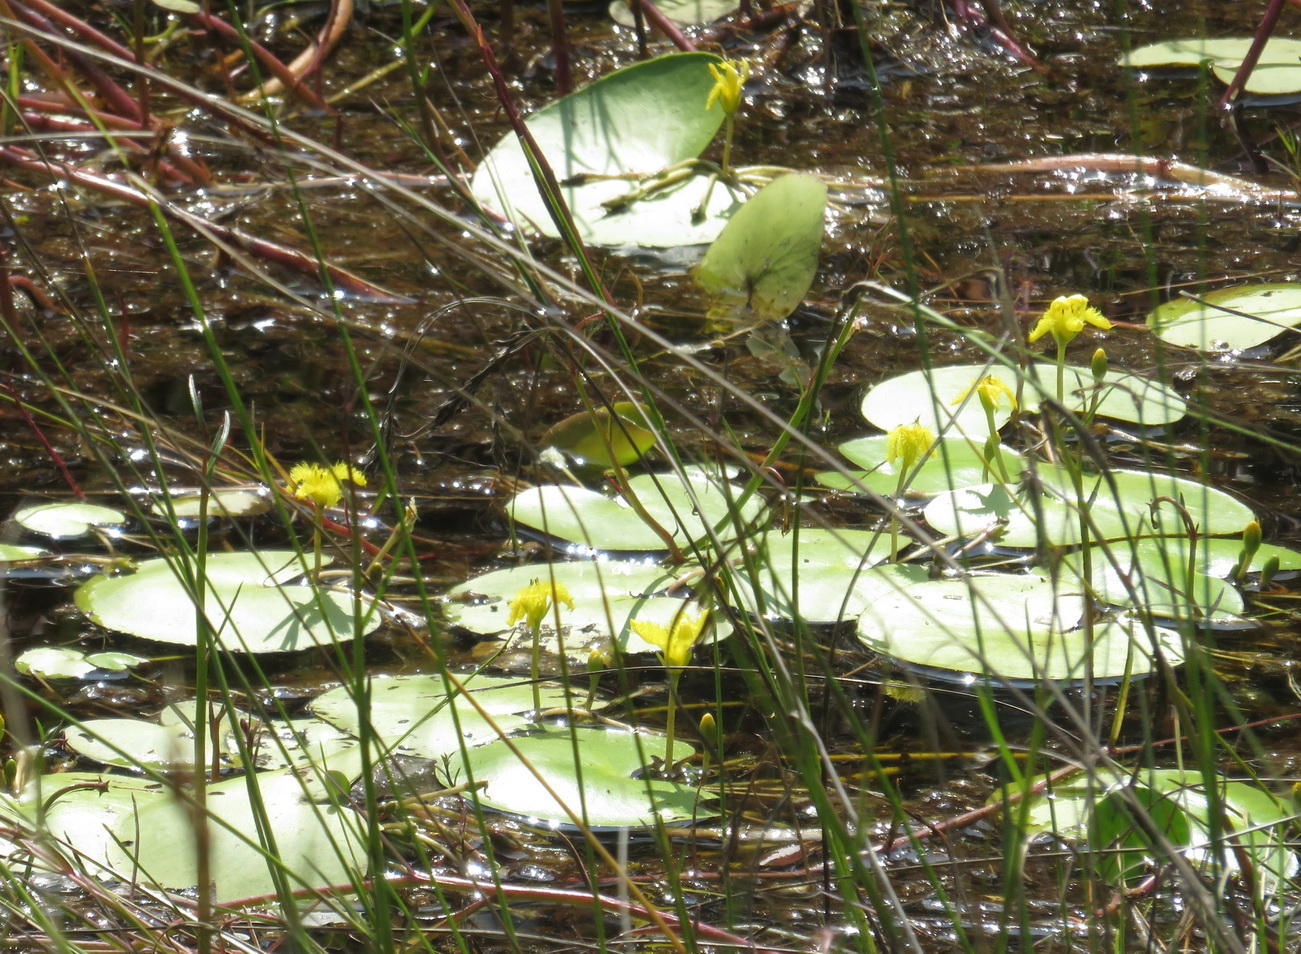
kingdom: Plantae
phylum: Tracheophyta
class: Magnoliopsida
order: Asterales
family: Menyanthaceae
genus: Nymphoides
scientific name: Nymphoides thunbergiana
